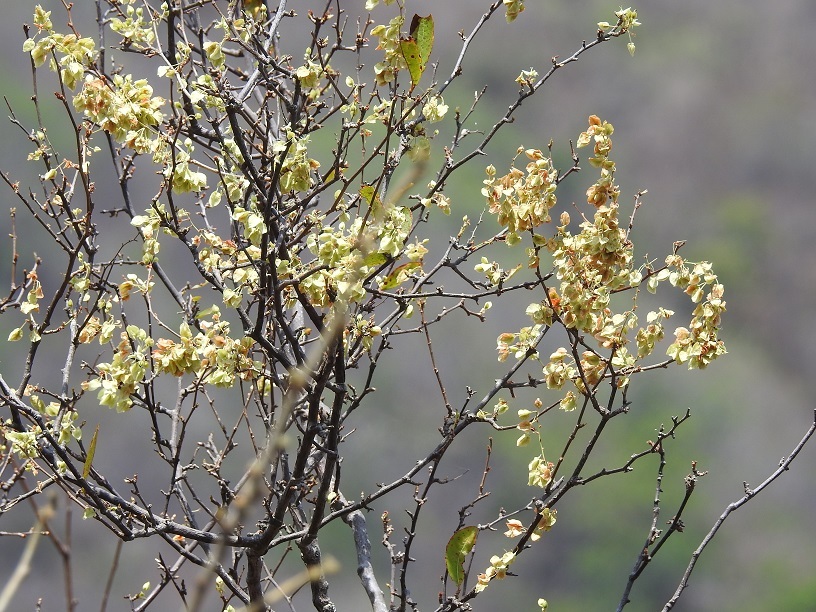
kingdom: Plantae
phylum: Tracheophyta
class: Magnoliopsida
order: Caryophyllales
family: Polygonaceae
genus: Gymnopodium
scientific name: Gymnopodium floribundum
